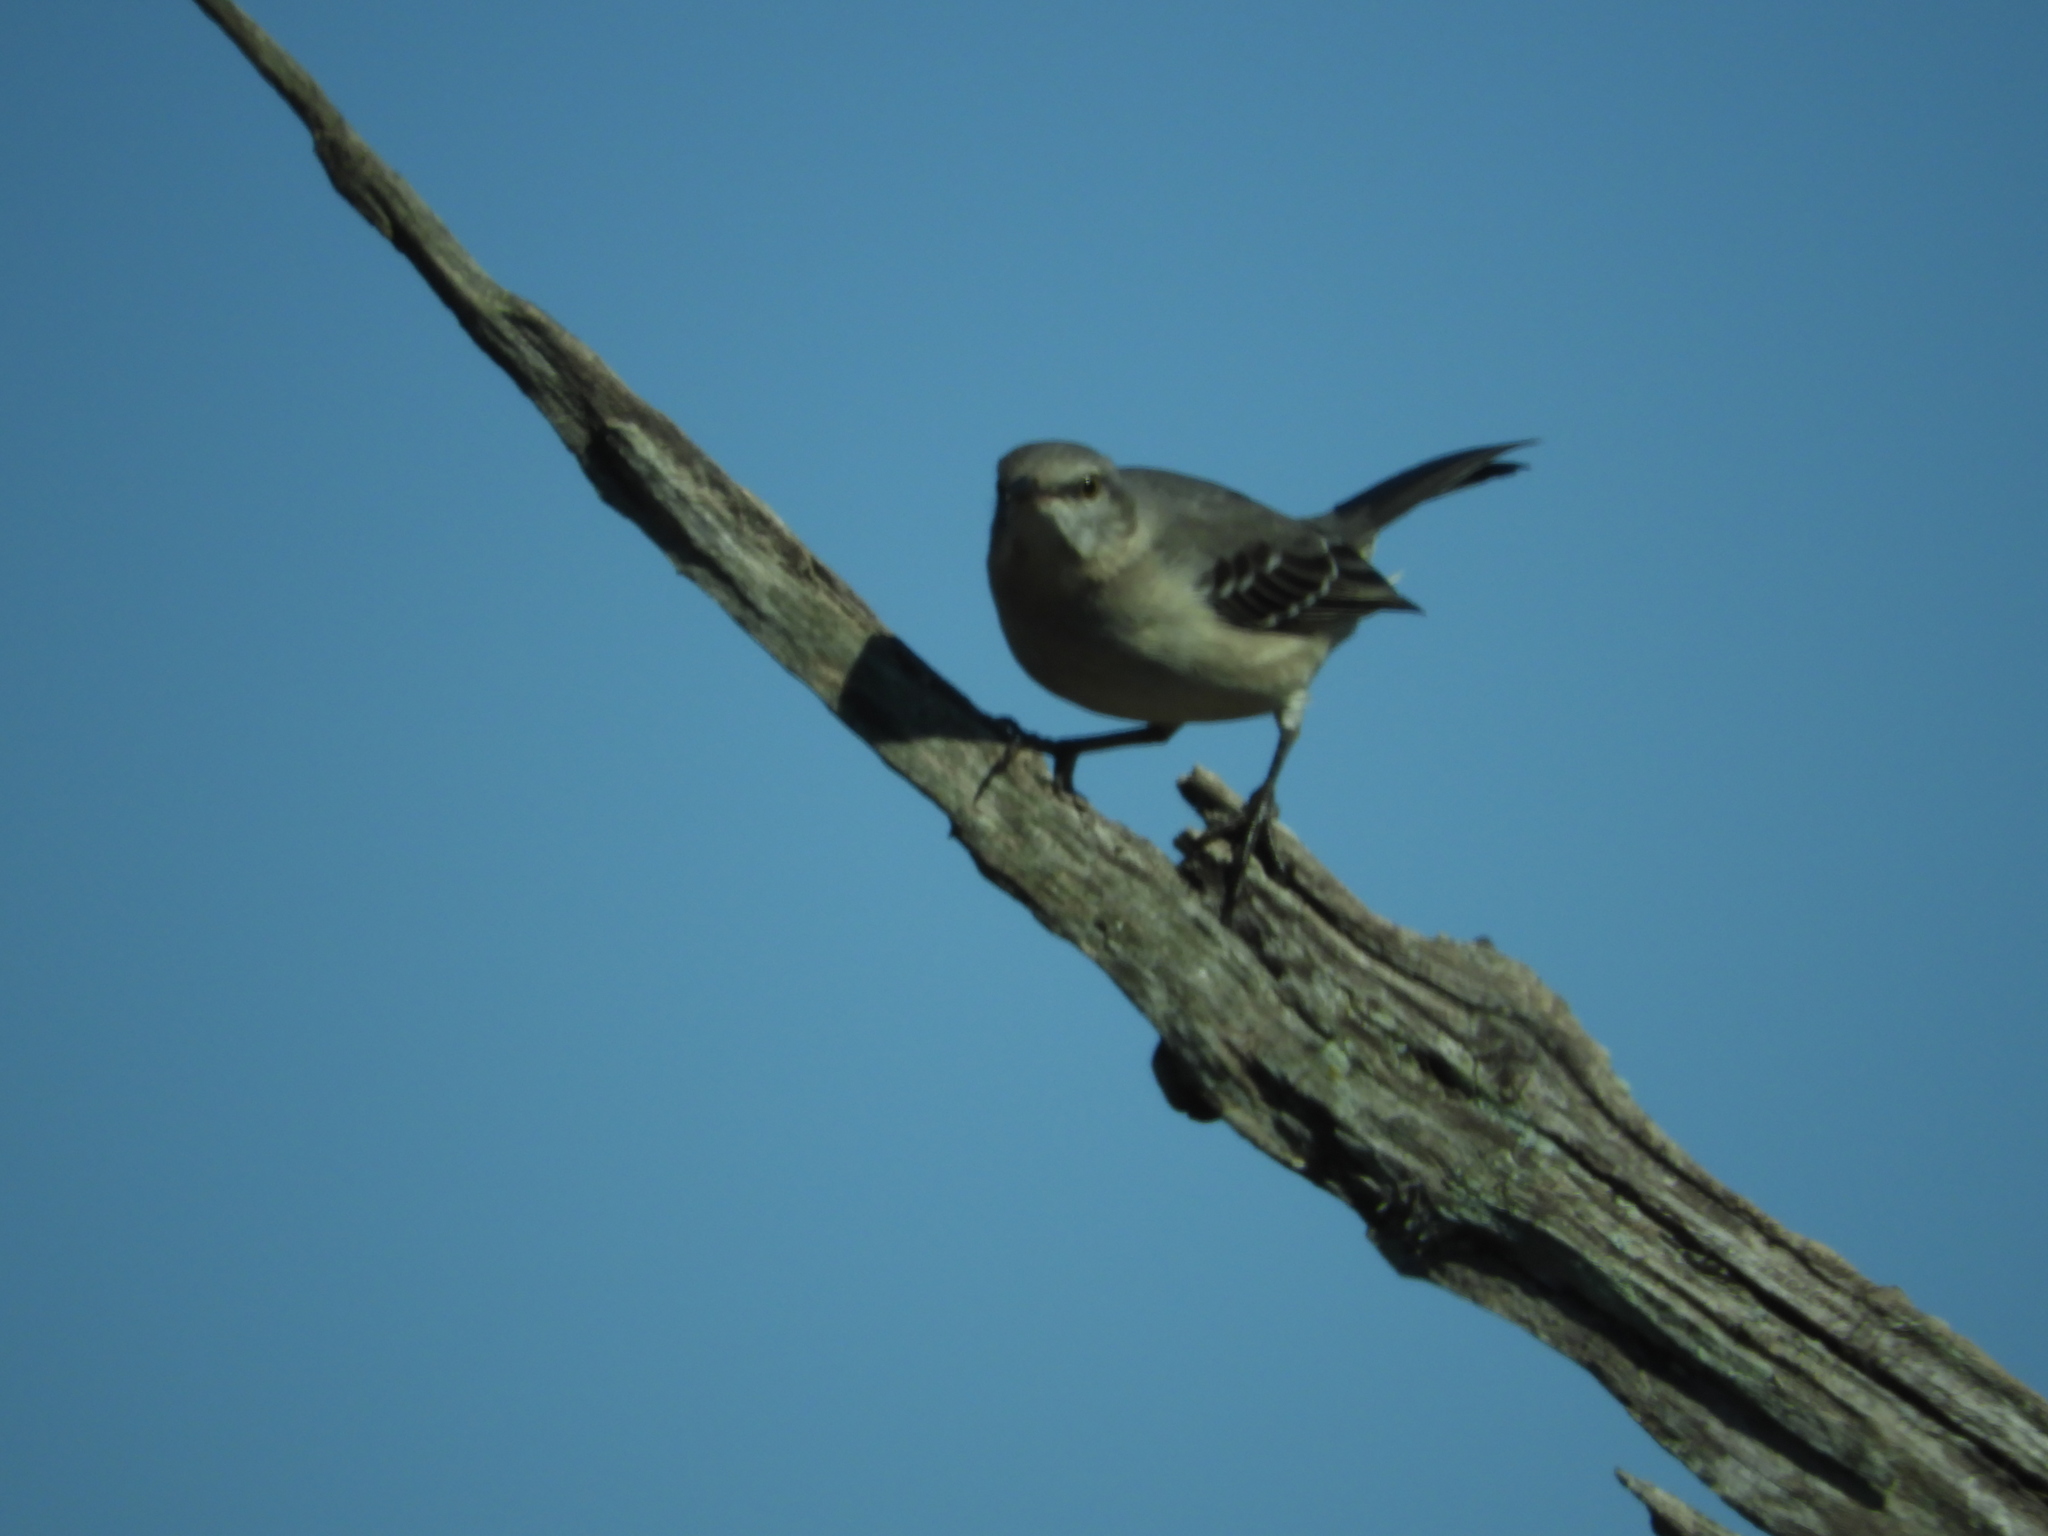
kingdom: Animalia
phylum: Chordata
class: Aves
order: Passeriformes
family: Mimidae
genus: Mimus
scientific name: Mimus polyglottos
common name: Northern mockingbird
